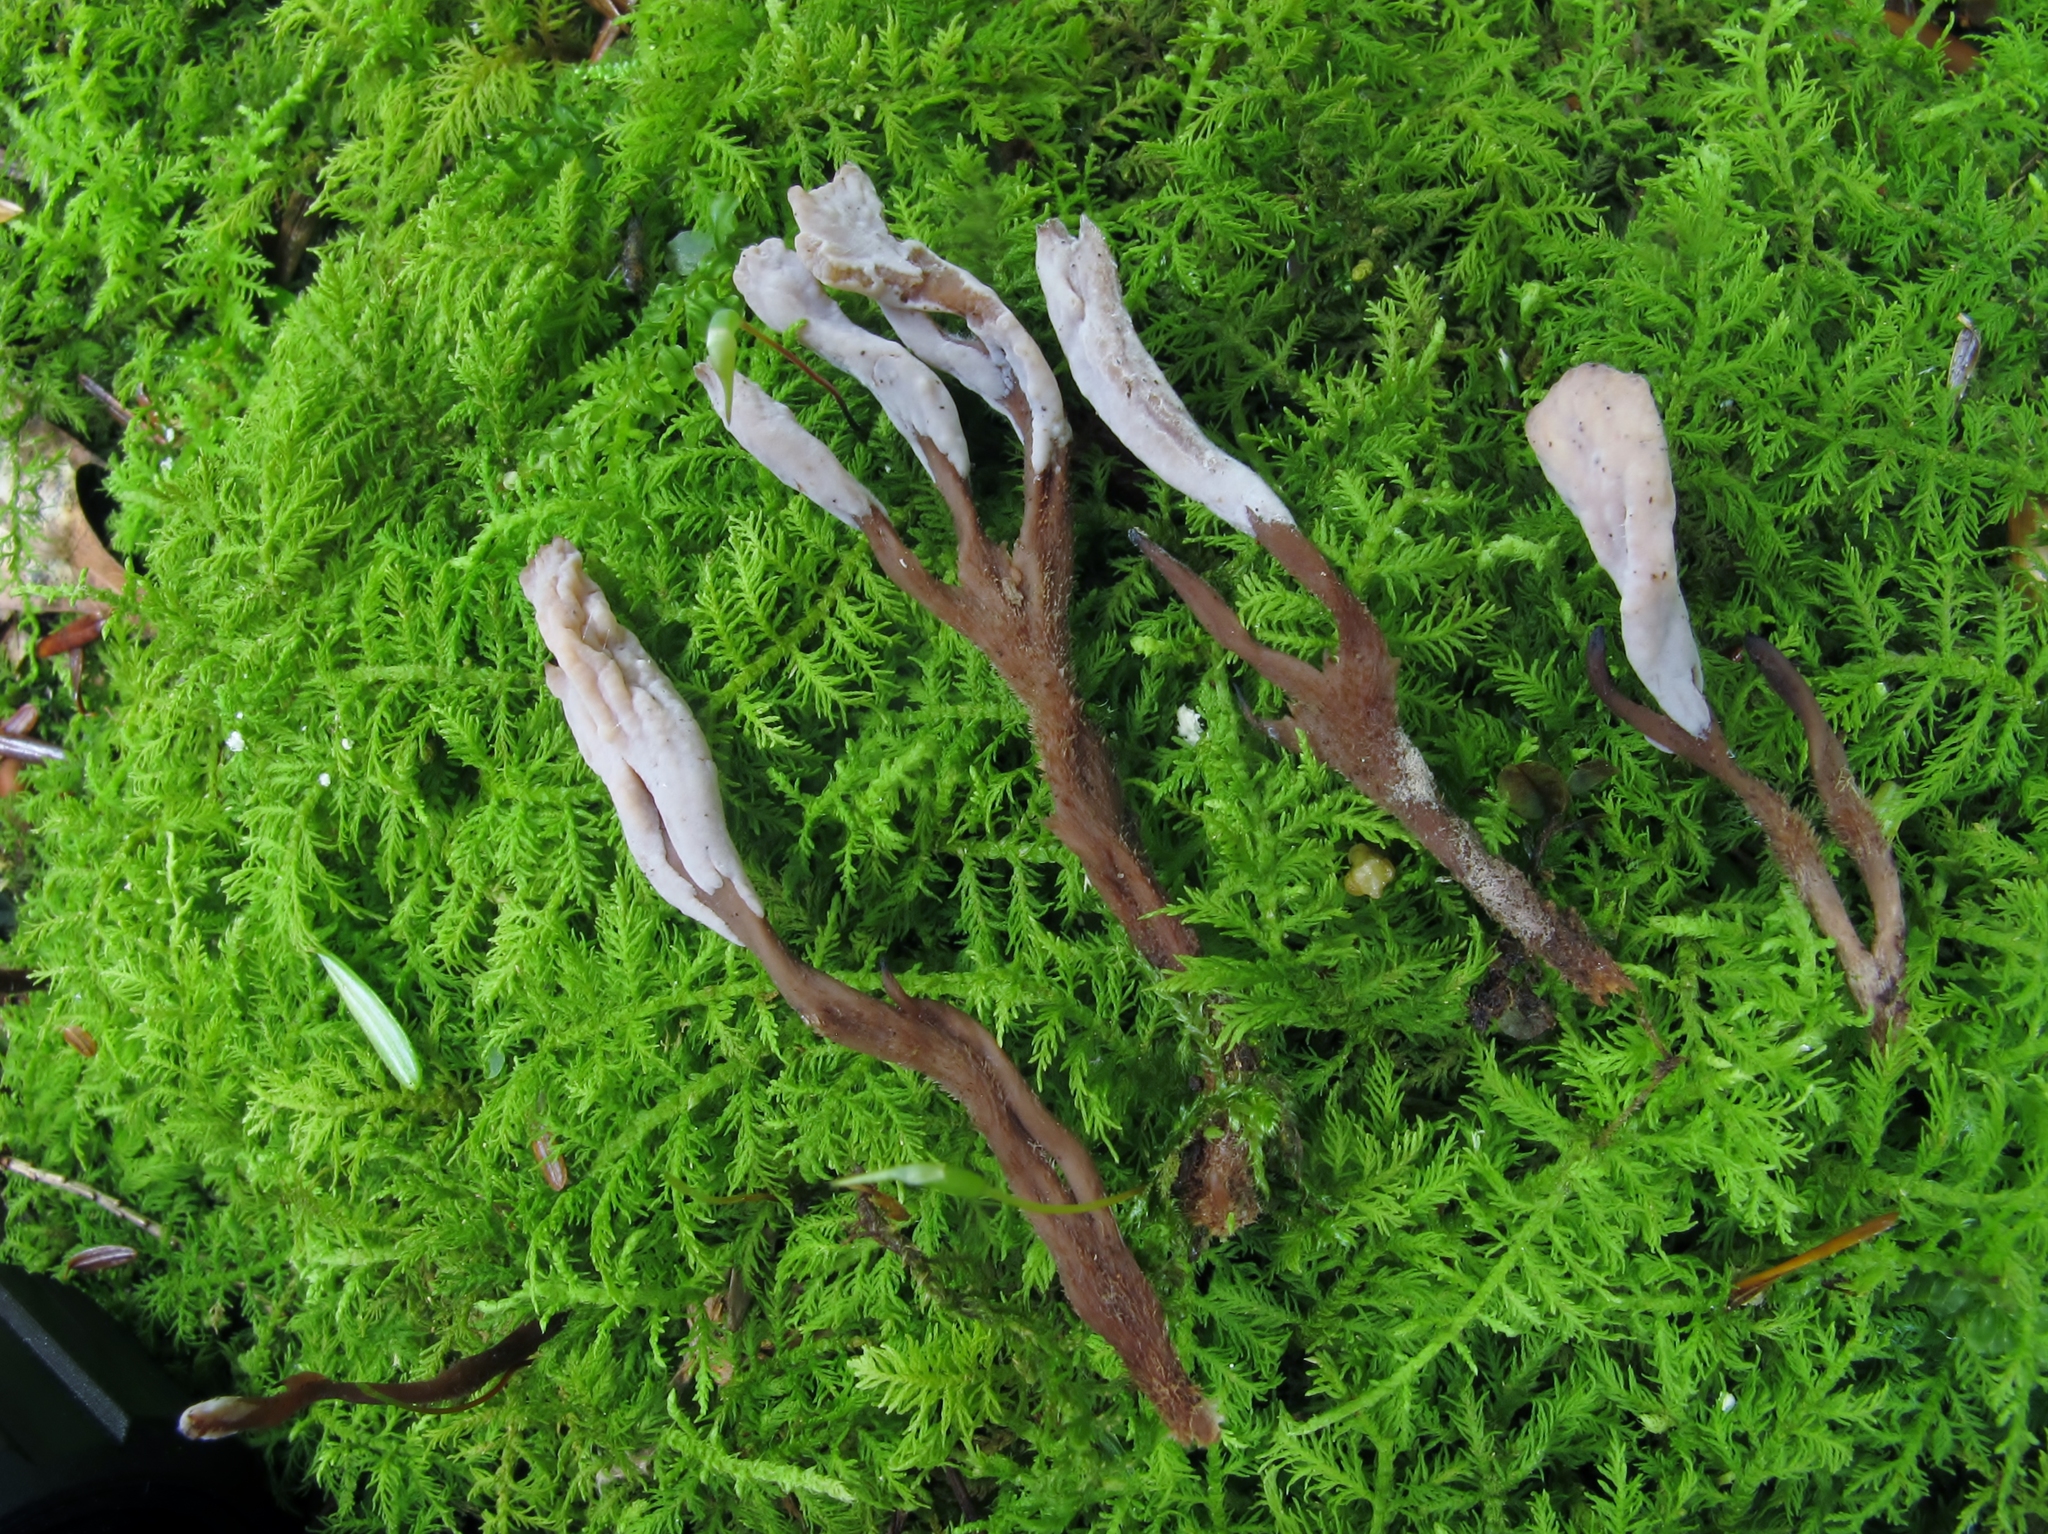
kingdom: Fungi
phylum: Basidiomycota
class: Agaricomycetes
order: Cantharellales
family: Hydnaceae
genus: Clavulina
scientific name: Clavulina ornatipes
